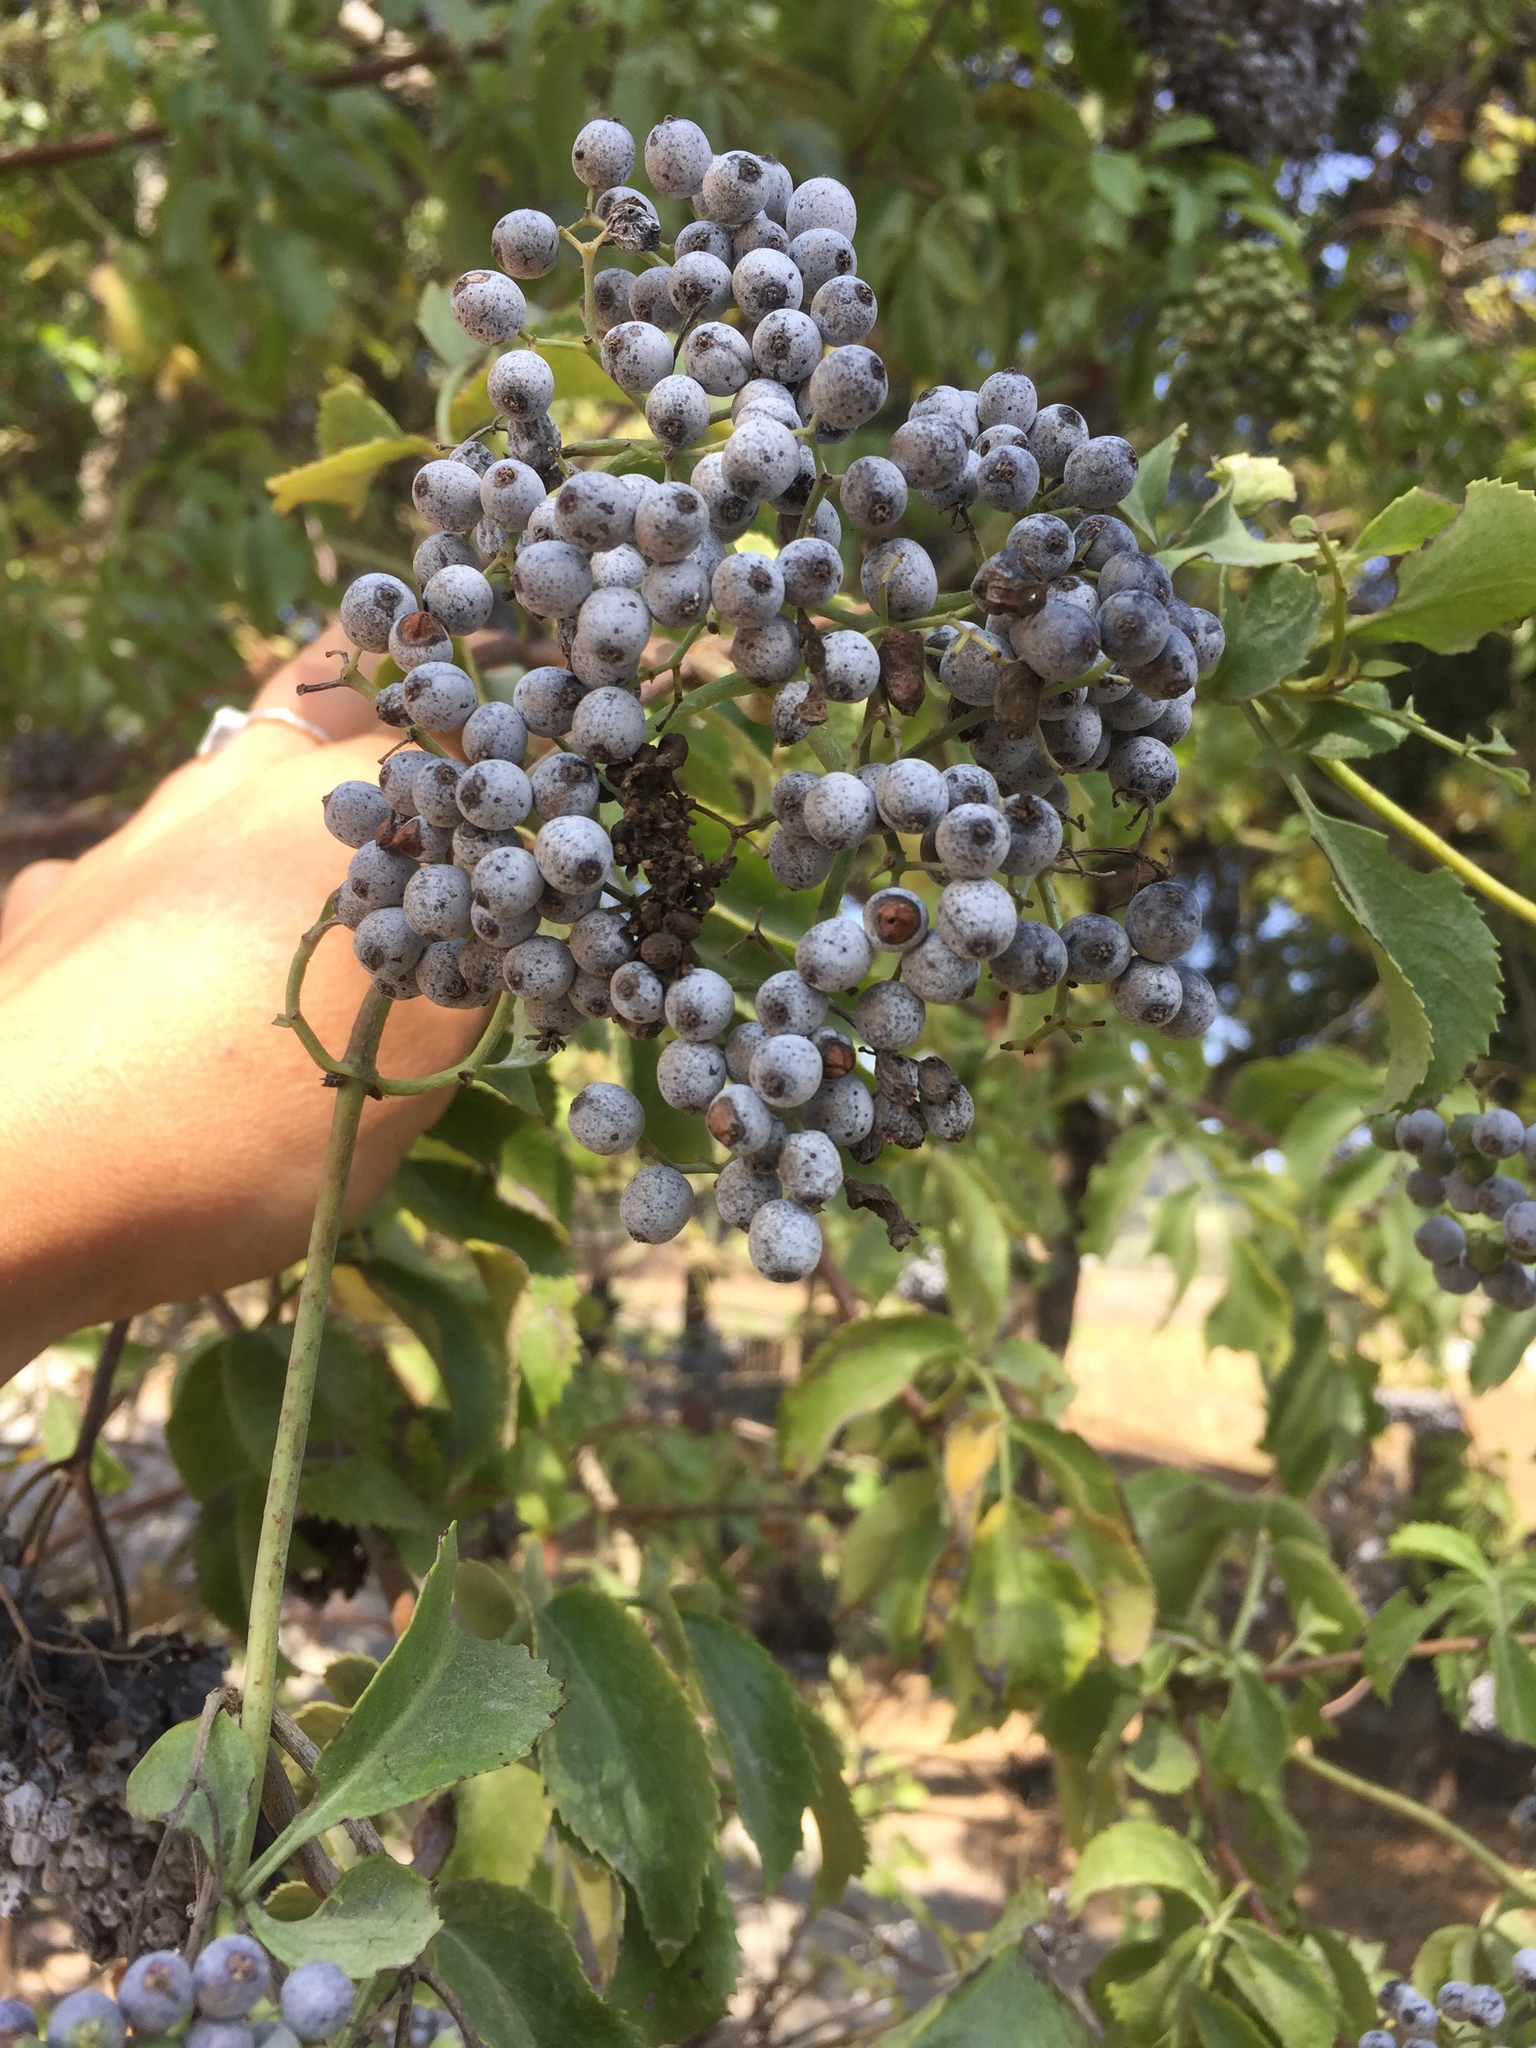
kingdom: Plantae
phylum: Tracheophyta
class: Magnoliopsida
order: Dipsacales
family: Viburnaceae
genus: Sambucus
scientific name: Sambucus cerulea
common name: Blue elder
